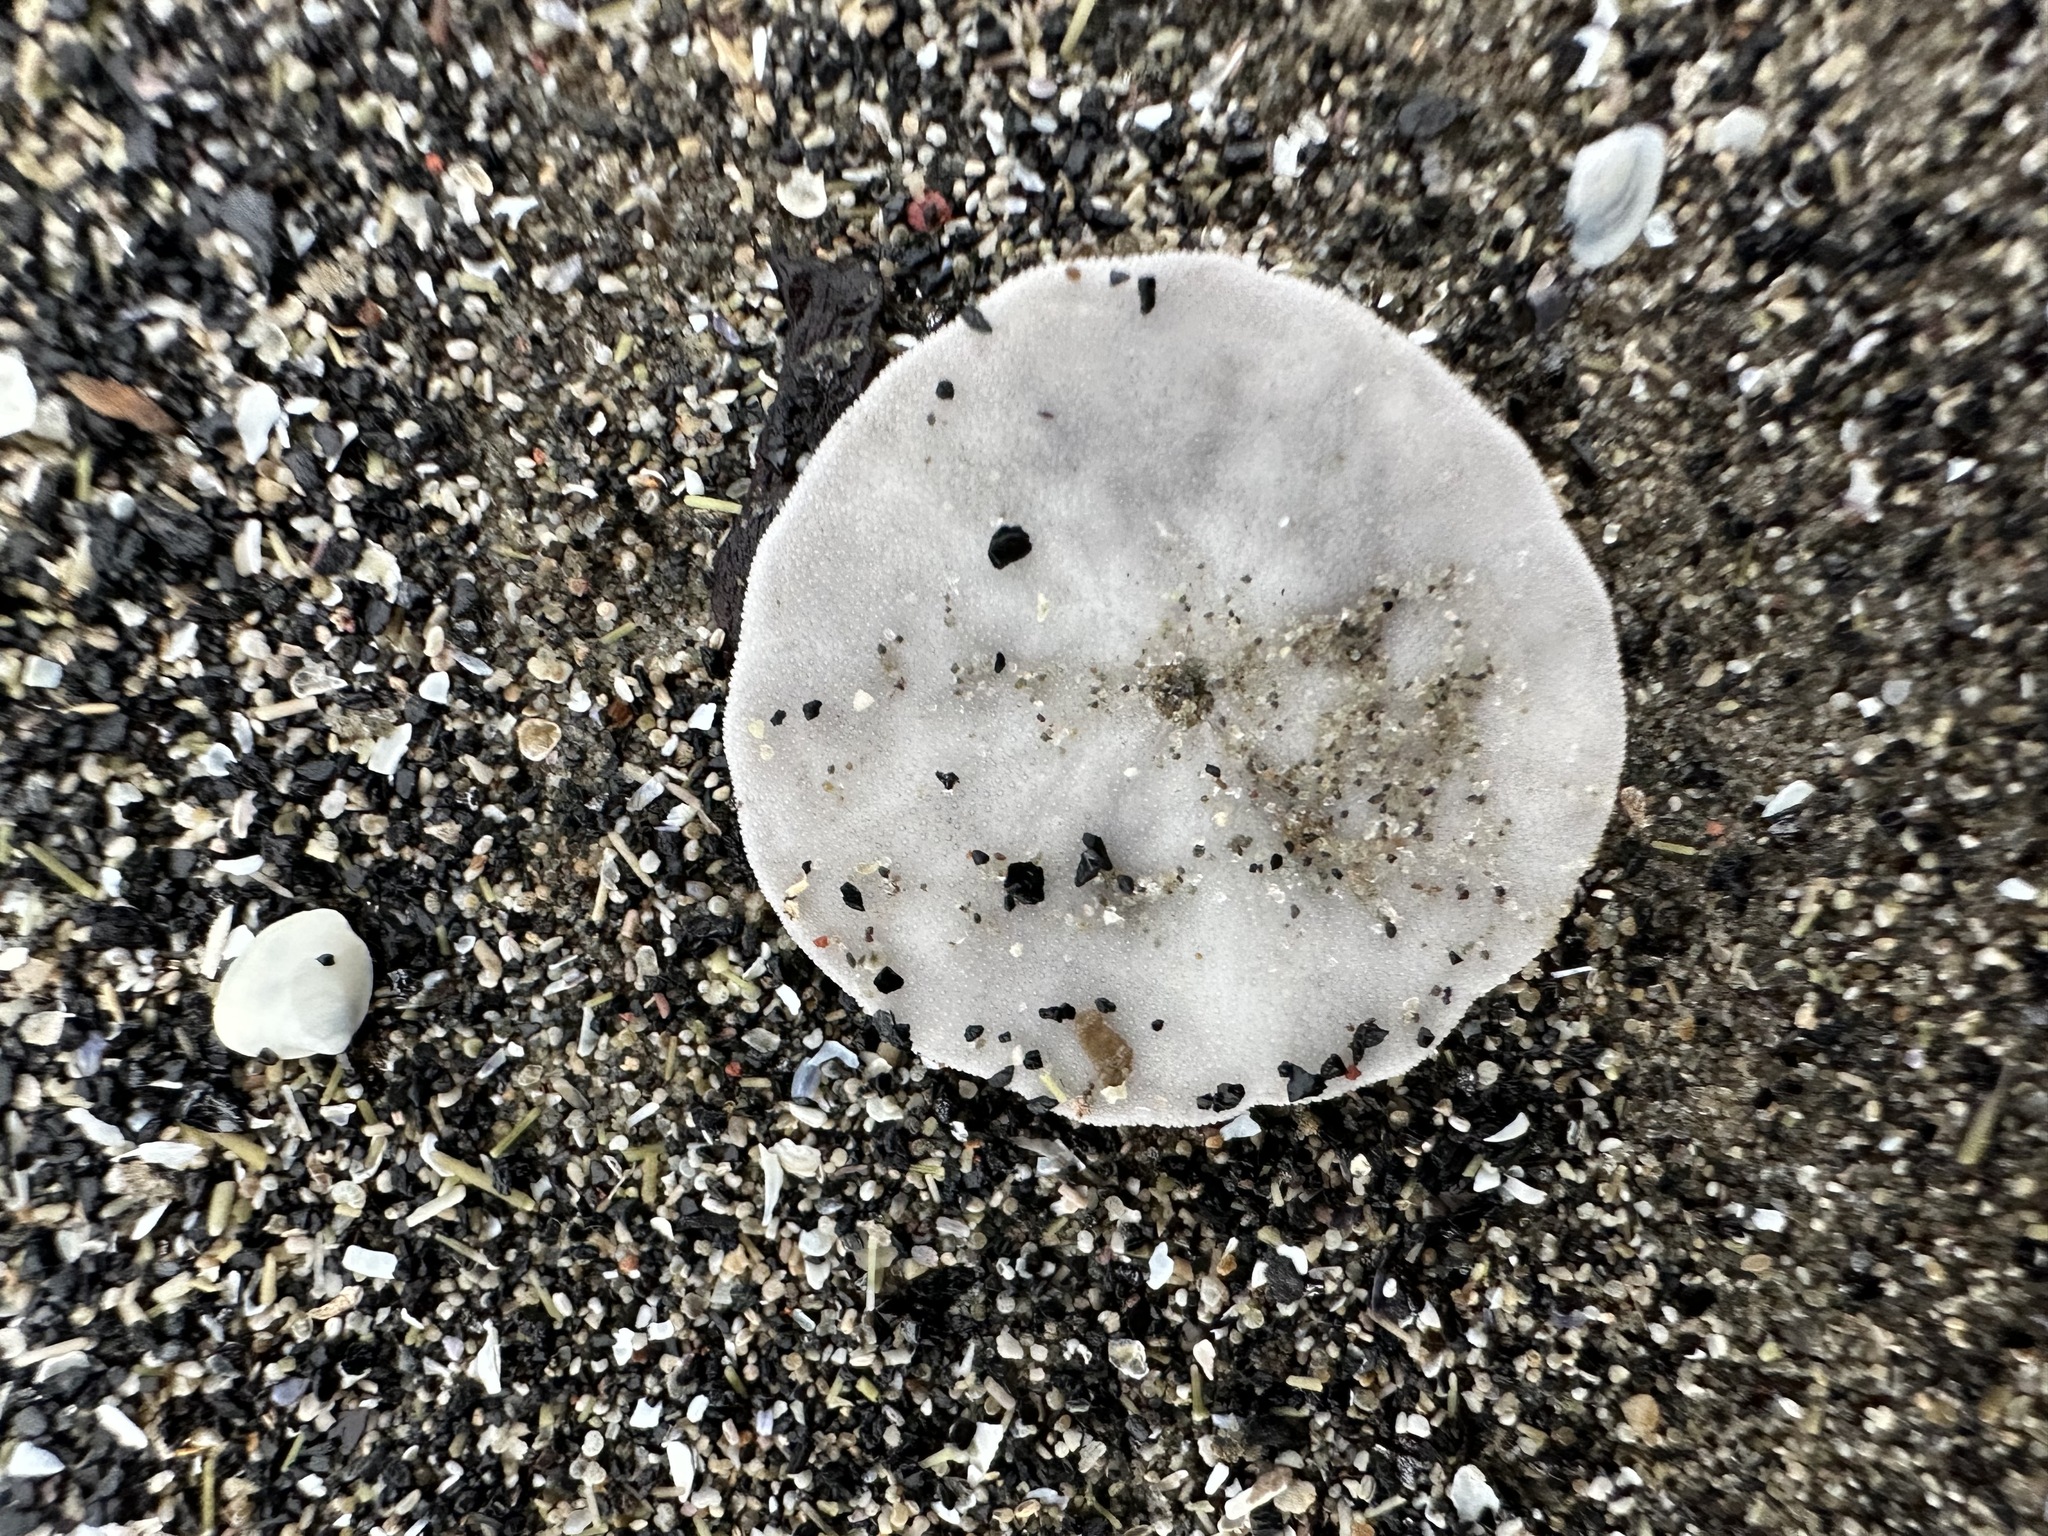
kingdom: Animalia
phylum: Echinodermata
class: Echinoidea
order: Echinolampadacea
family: Echinarachniidae
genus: Echinarachnius
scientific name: Echinarachnius parma
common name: Common sand dollar
